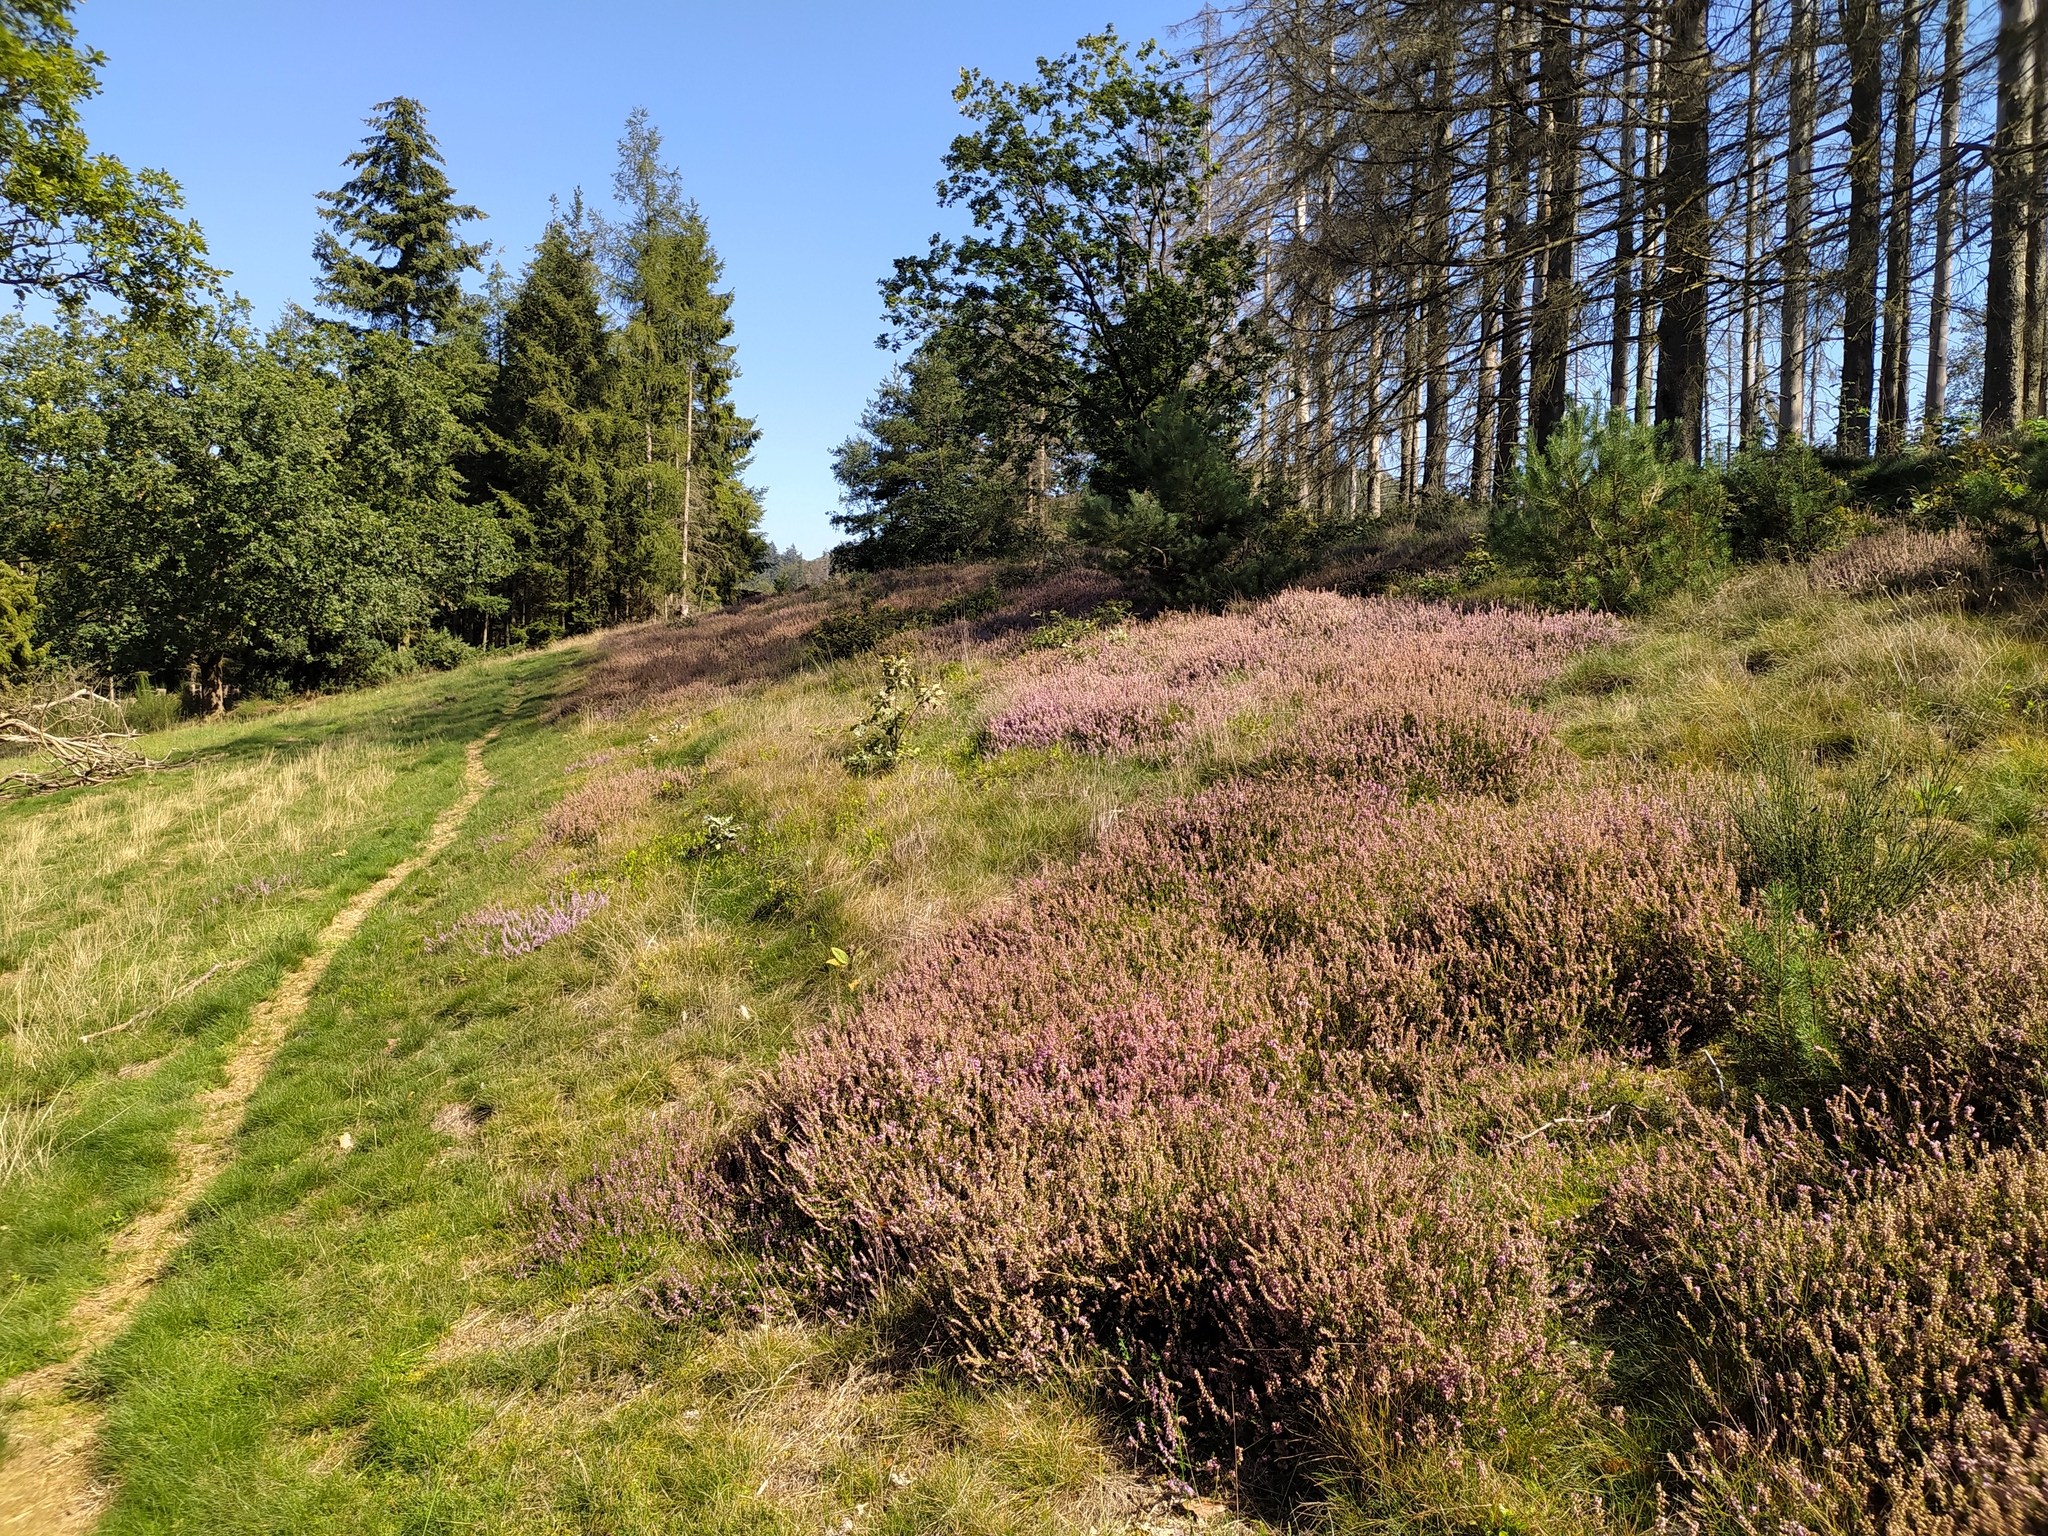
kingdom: Plantae
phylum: Tracheophyta
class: Magnoliopsida
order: Ericales
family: Ericaceae
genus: Calluna
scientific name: Calluna vulgaris
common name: Heather
